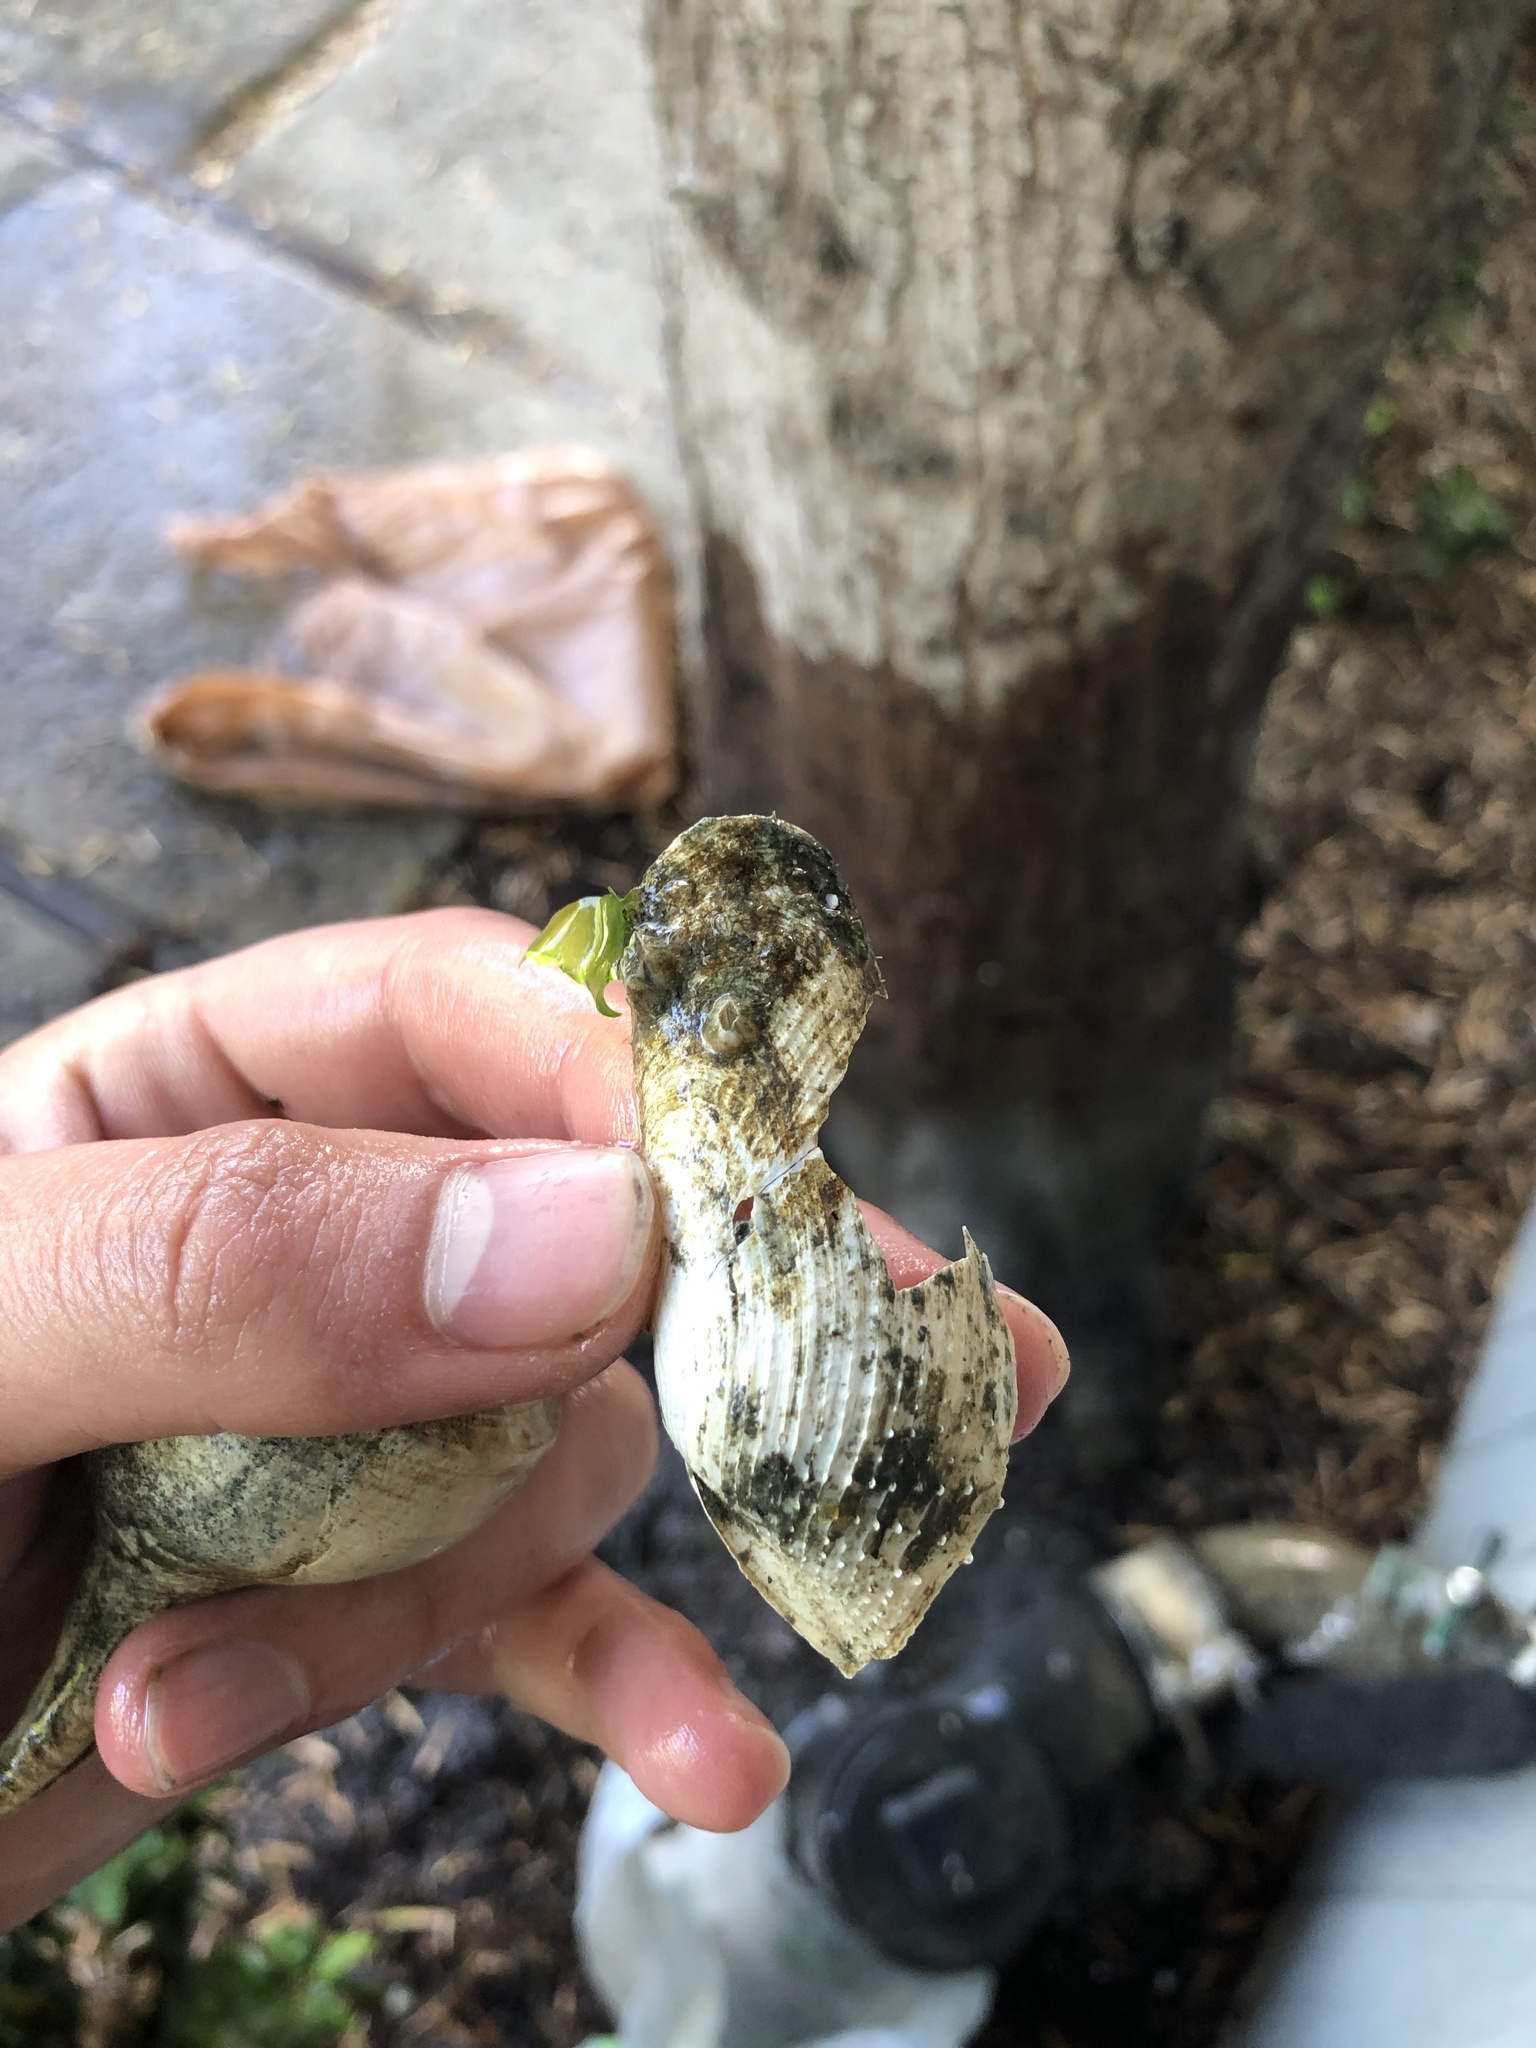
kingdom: Animalia
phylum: Mollusca
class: Bivalvia
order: Myida
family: Pholadidae
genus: Barnea
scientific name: Barnea subtruncata
